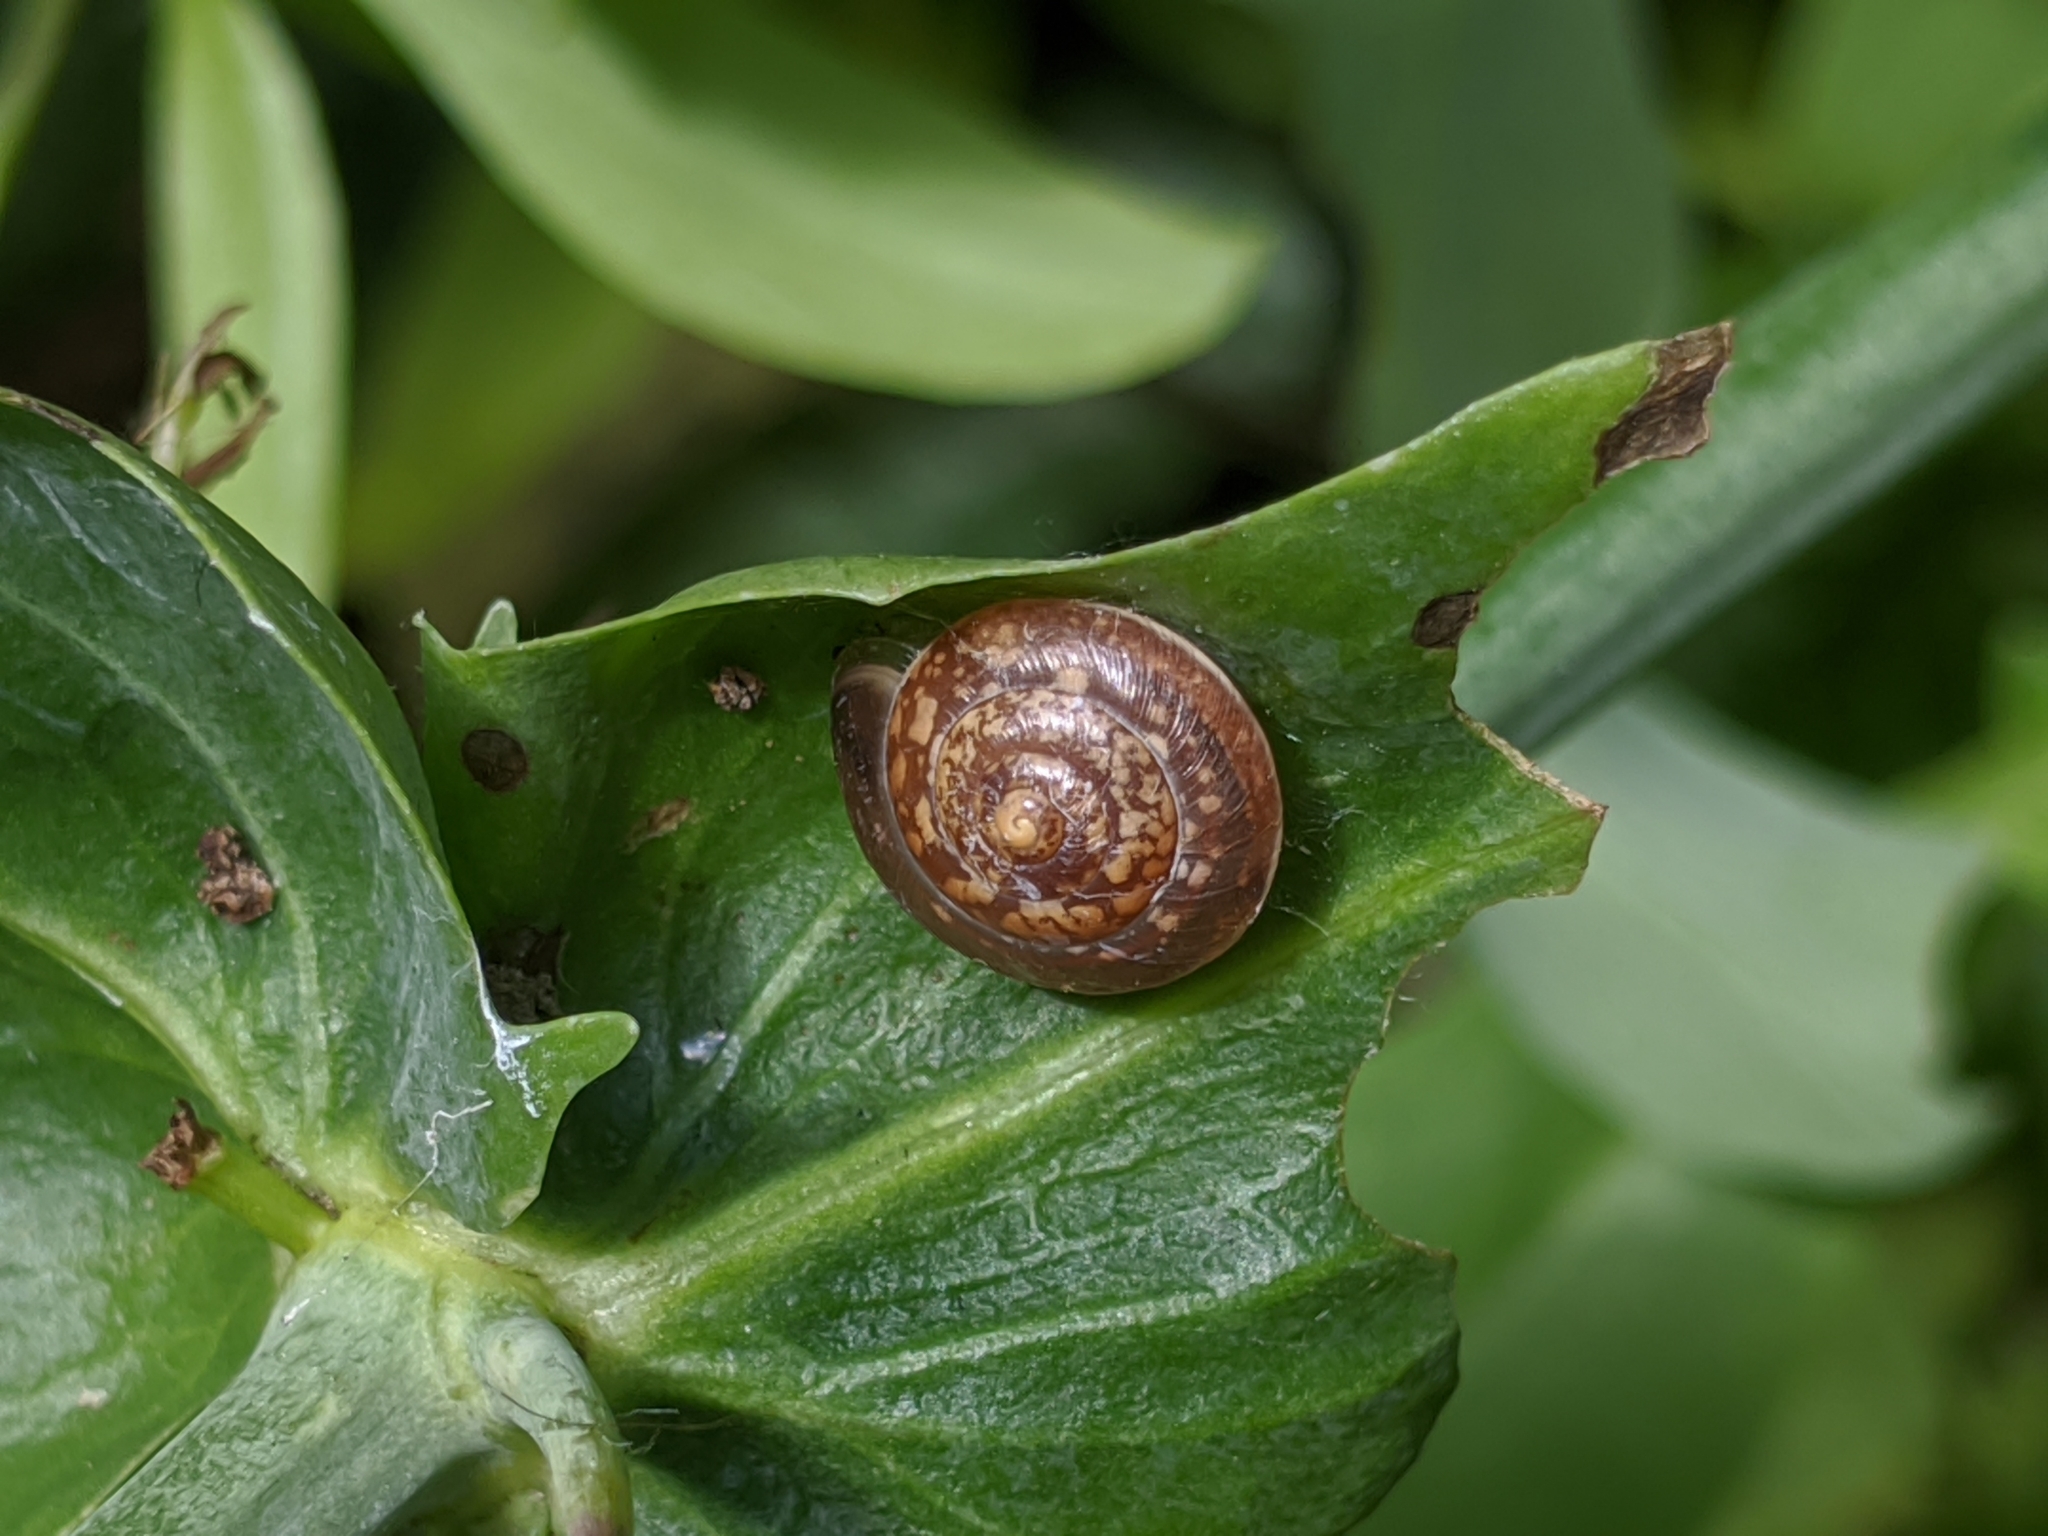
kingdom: Animalia
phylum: Mollusca
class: Gastropoda
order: Stylommatophora
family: Hygromiidae
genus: Hygromia
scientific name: Hygromia cinctella
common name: Girdled snail
